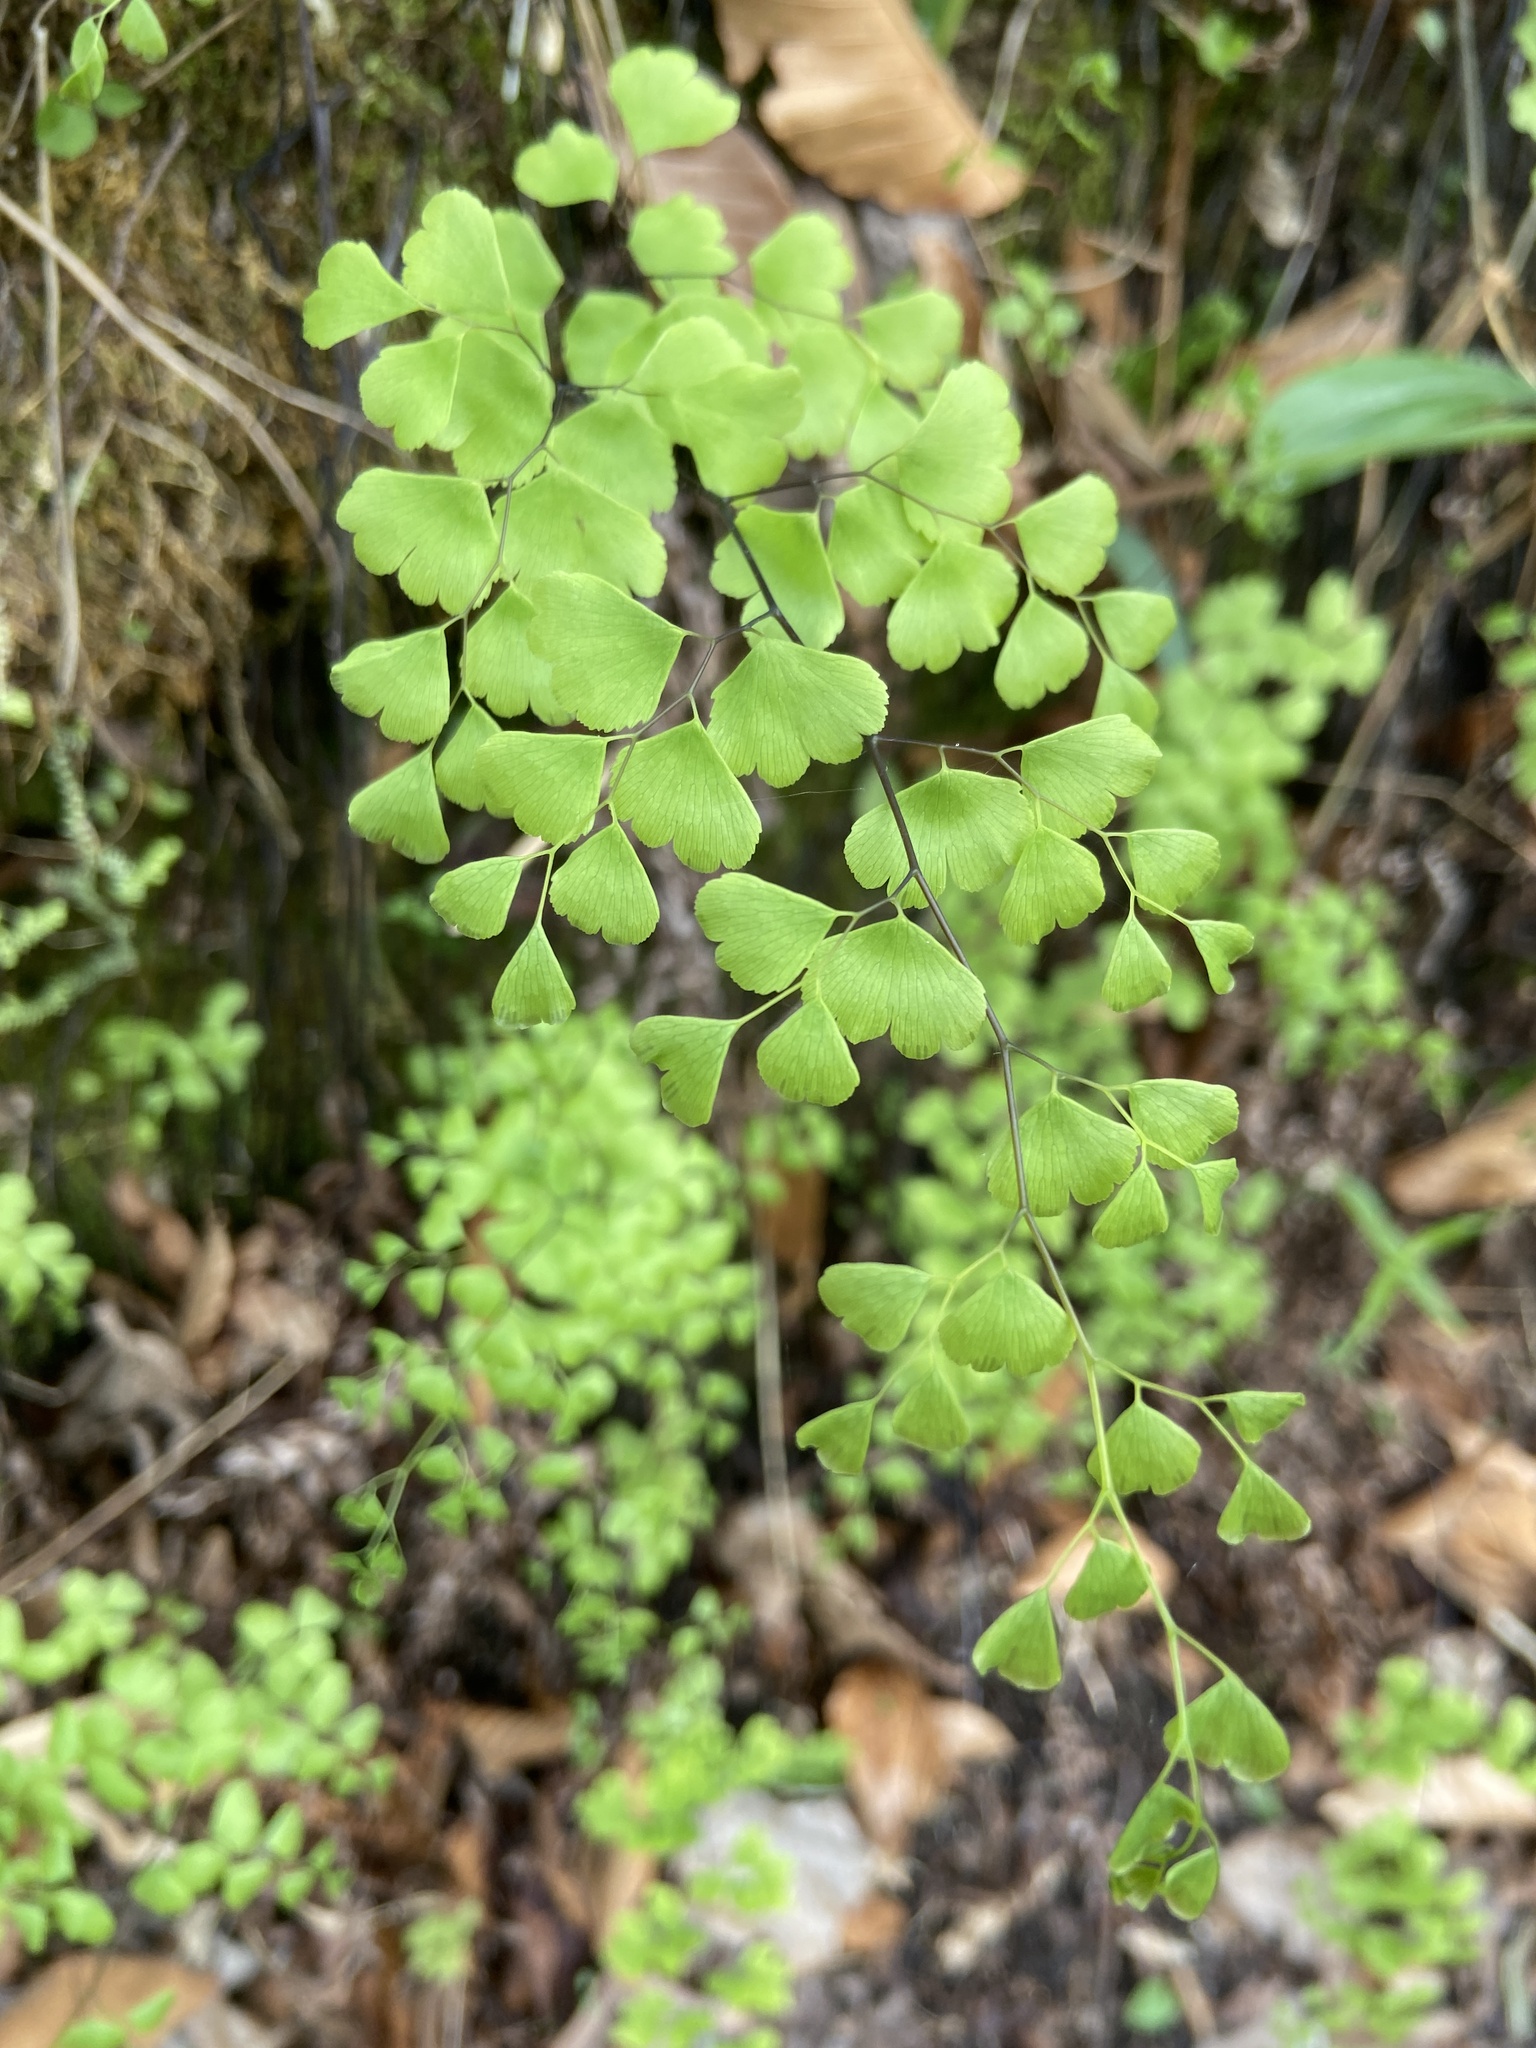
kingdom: Plantae
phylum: Tracheophyta
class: Polypodiopsida
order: Polypodiales
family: Pteridaceae
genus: Adiantum
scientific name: Adiantum capillus-veneris
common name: Maidenhair fern
